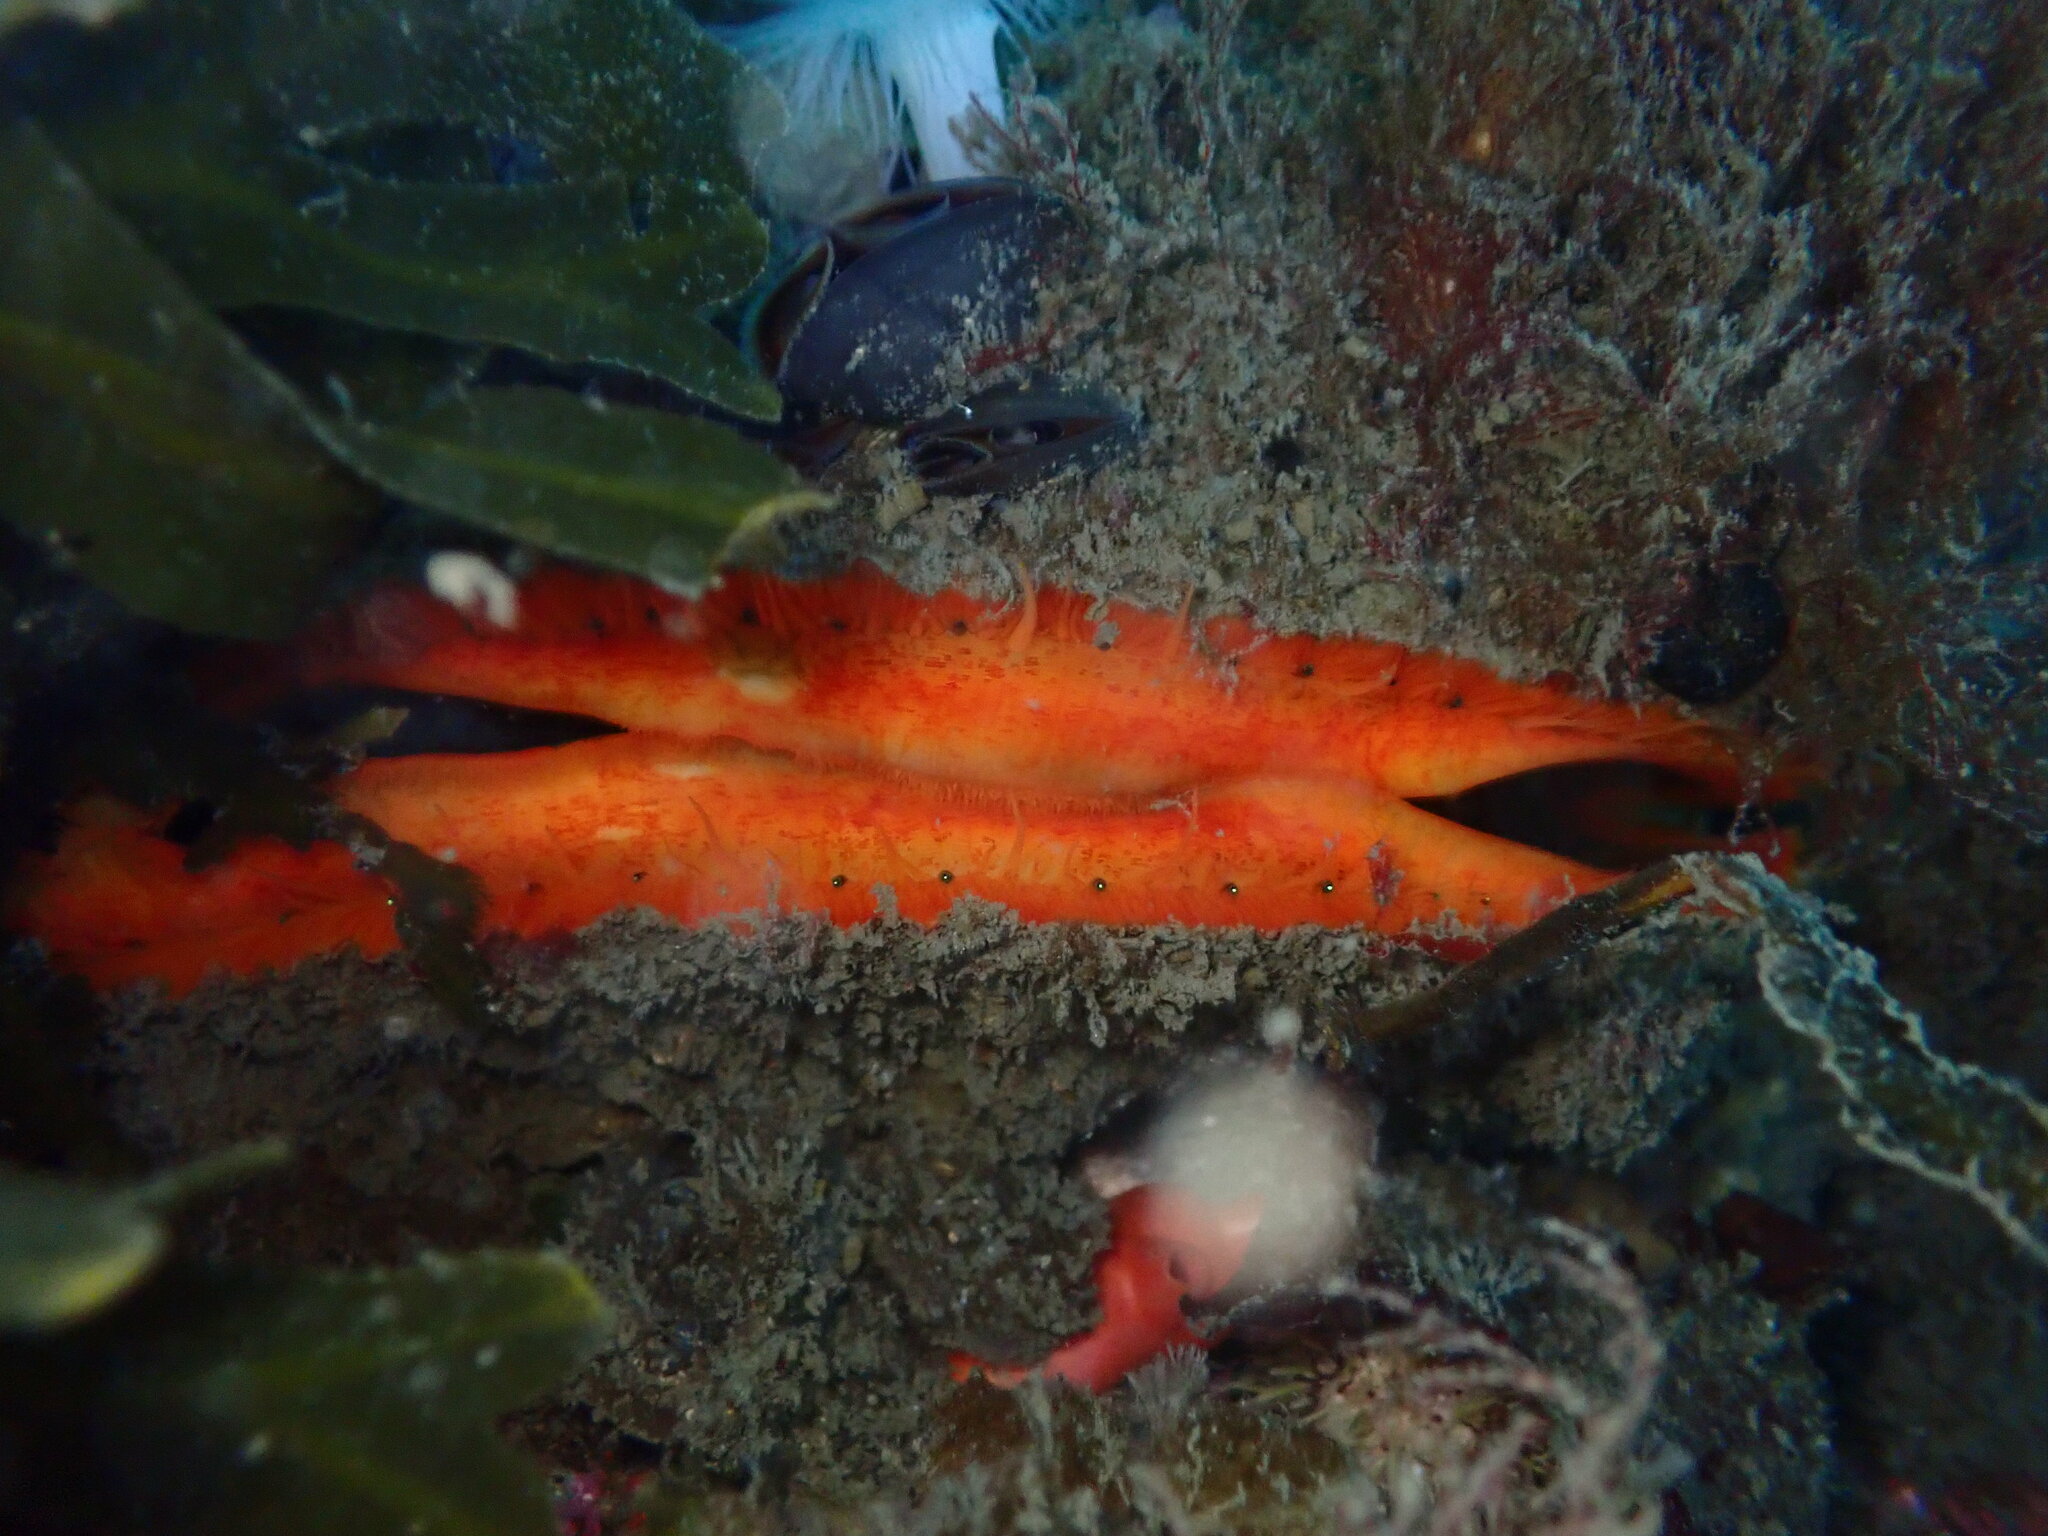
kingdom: Animalia
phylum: Mollusca
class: Bivalvia
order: Pectinida
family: Pectinidae
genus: Crassadoma
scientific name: Crassadoma gigantea
